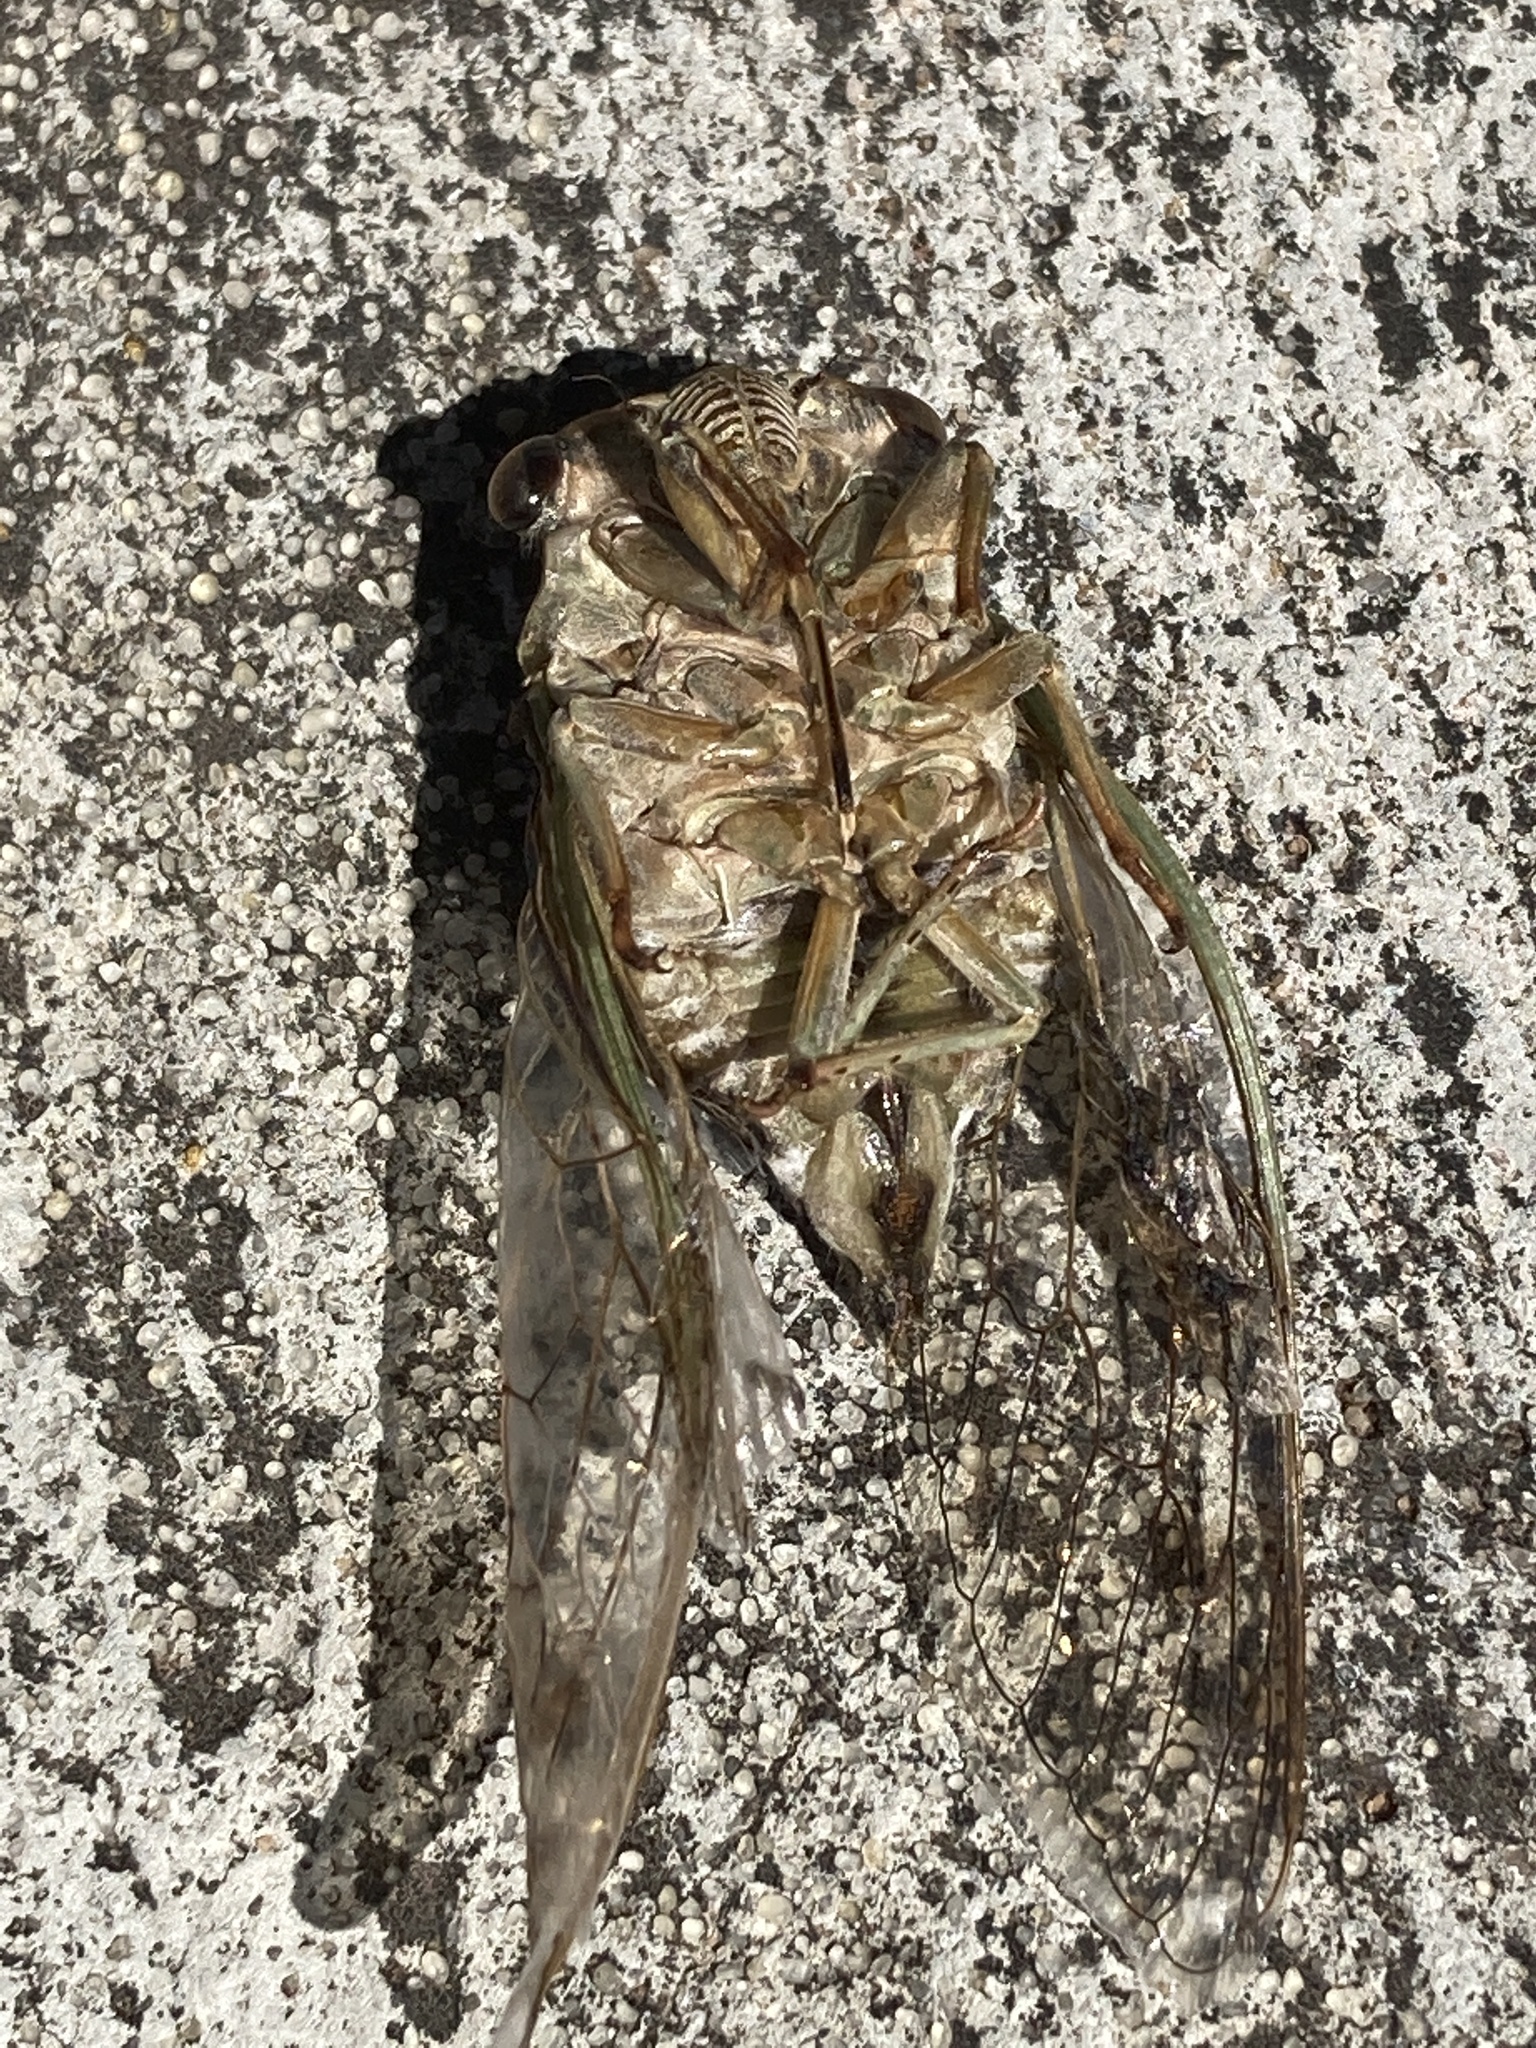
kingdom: Animalia
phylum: Arthropoda
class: Insecta
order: Hemiptera
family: Cicadidae
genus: Neotibicen
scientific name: Neotibicen pruinosus
